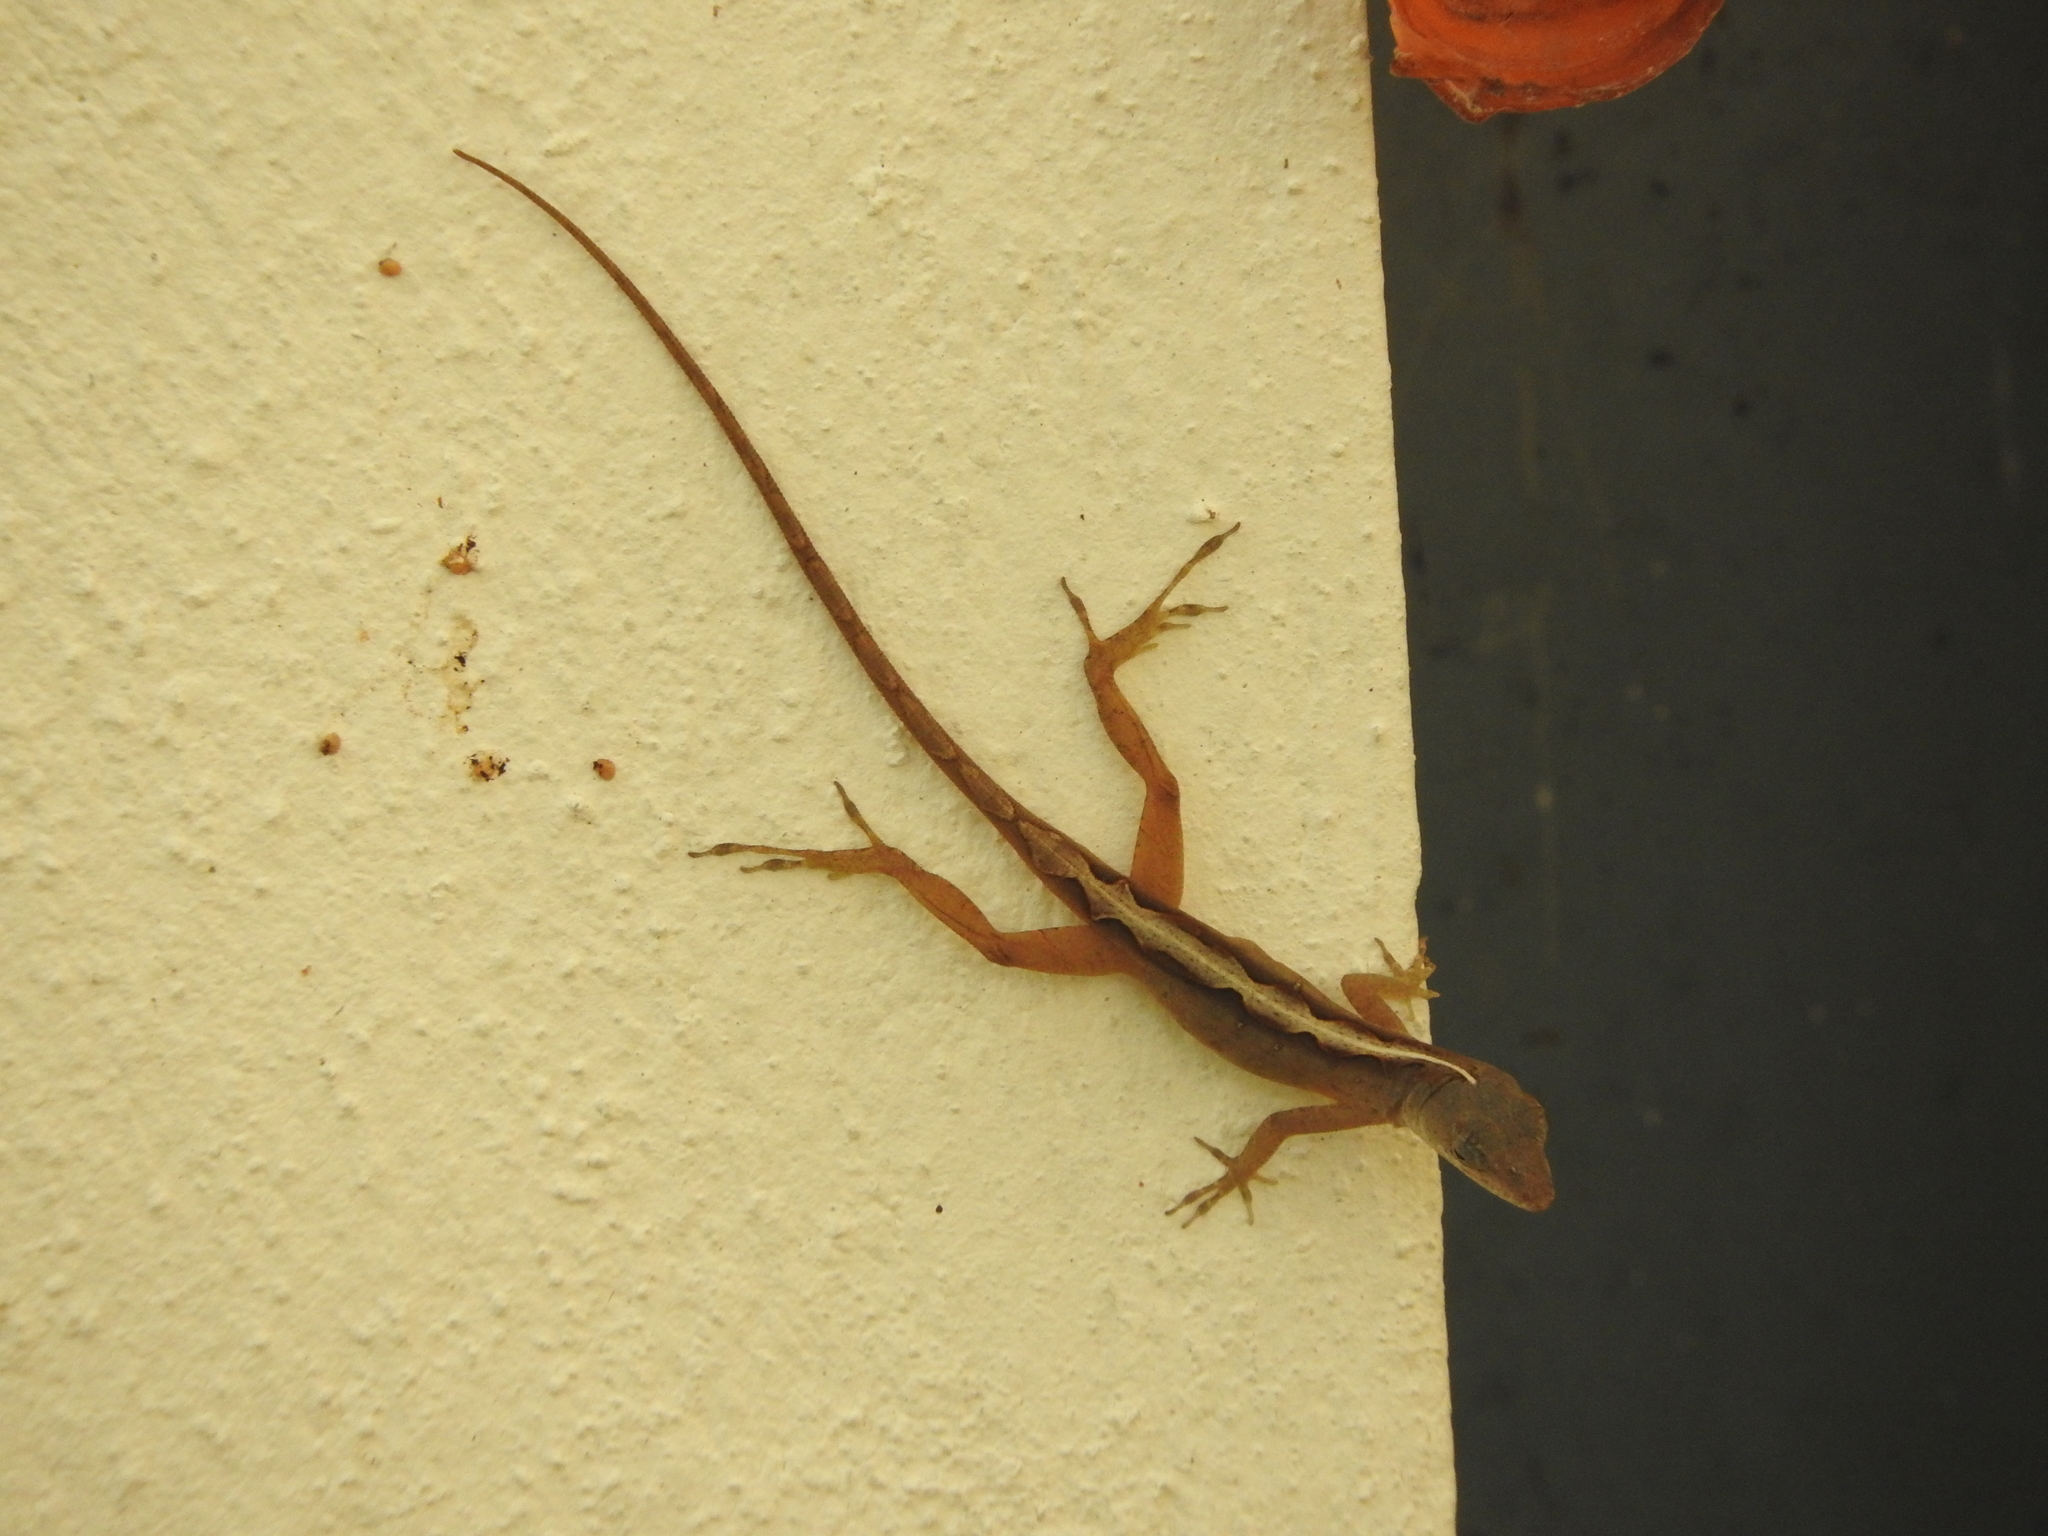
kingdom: Animalia
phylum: Chordata
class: Squamata
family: Dactyloidae
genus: Anolis
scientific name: Anolis sagrei
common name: Brown anole
